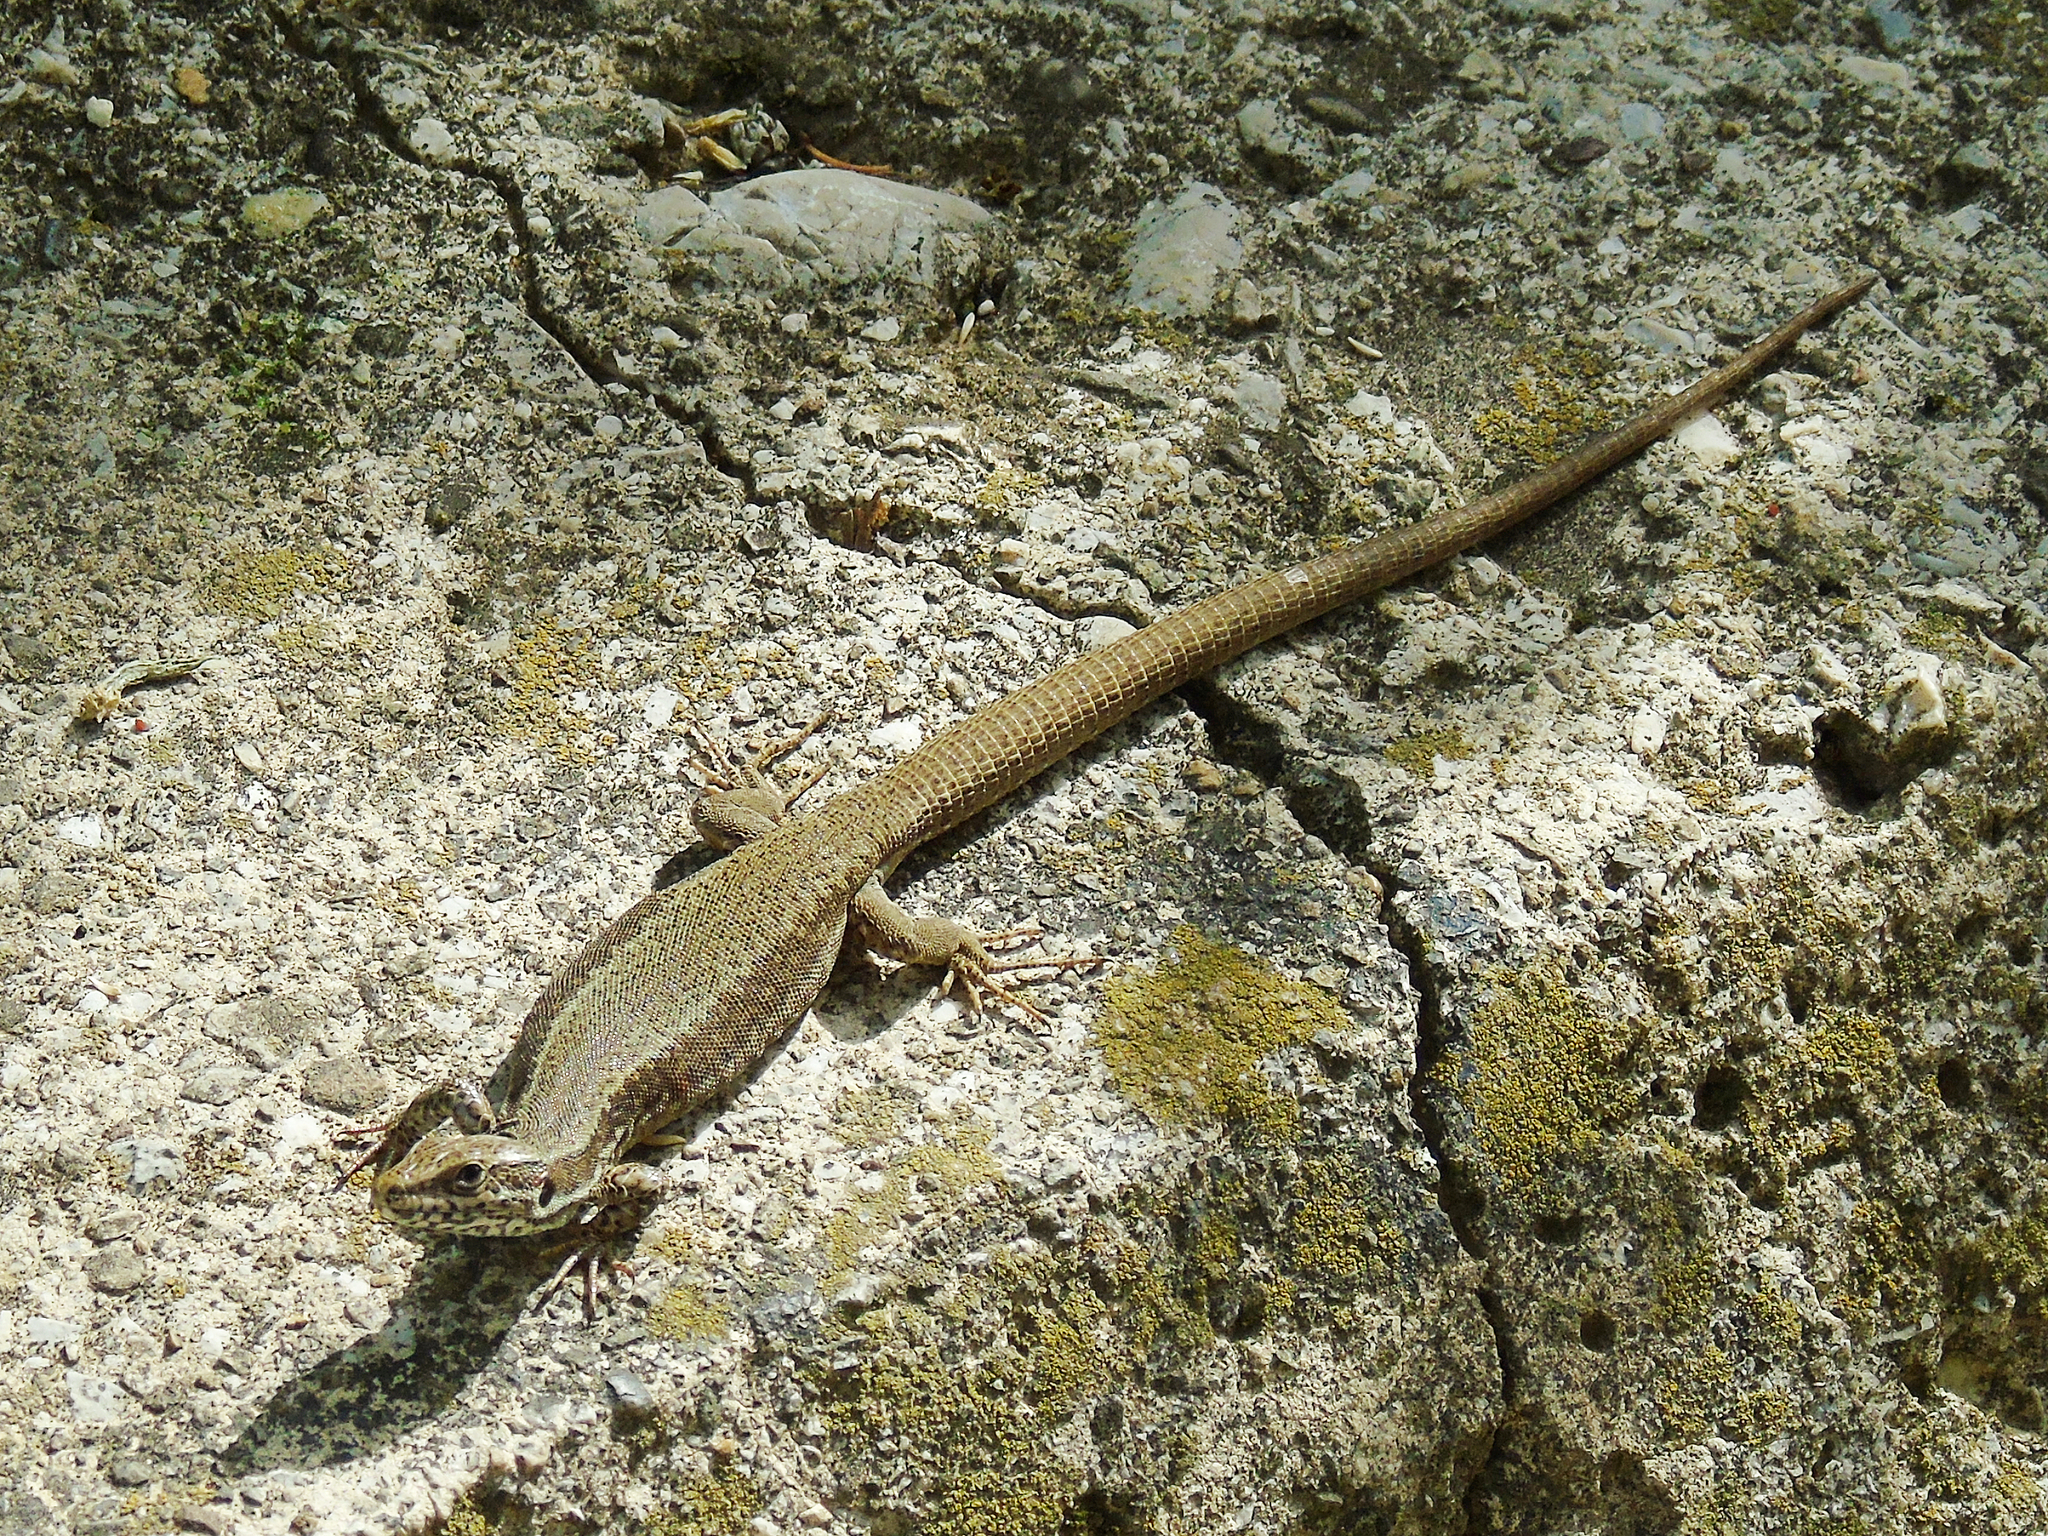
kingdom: Animalia
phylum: Chordata
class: Squamata
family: Lacertidae
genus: Podarcis
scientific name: Podarcis muralis
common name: Common wall lizard
